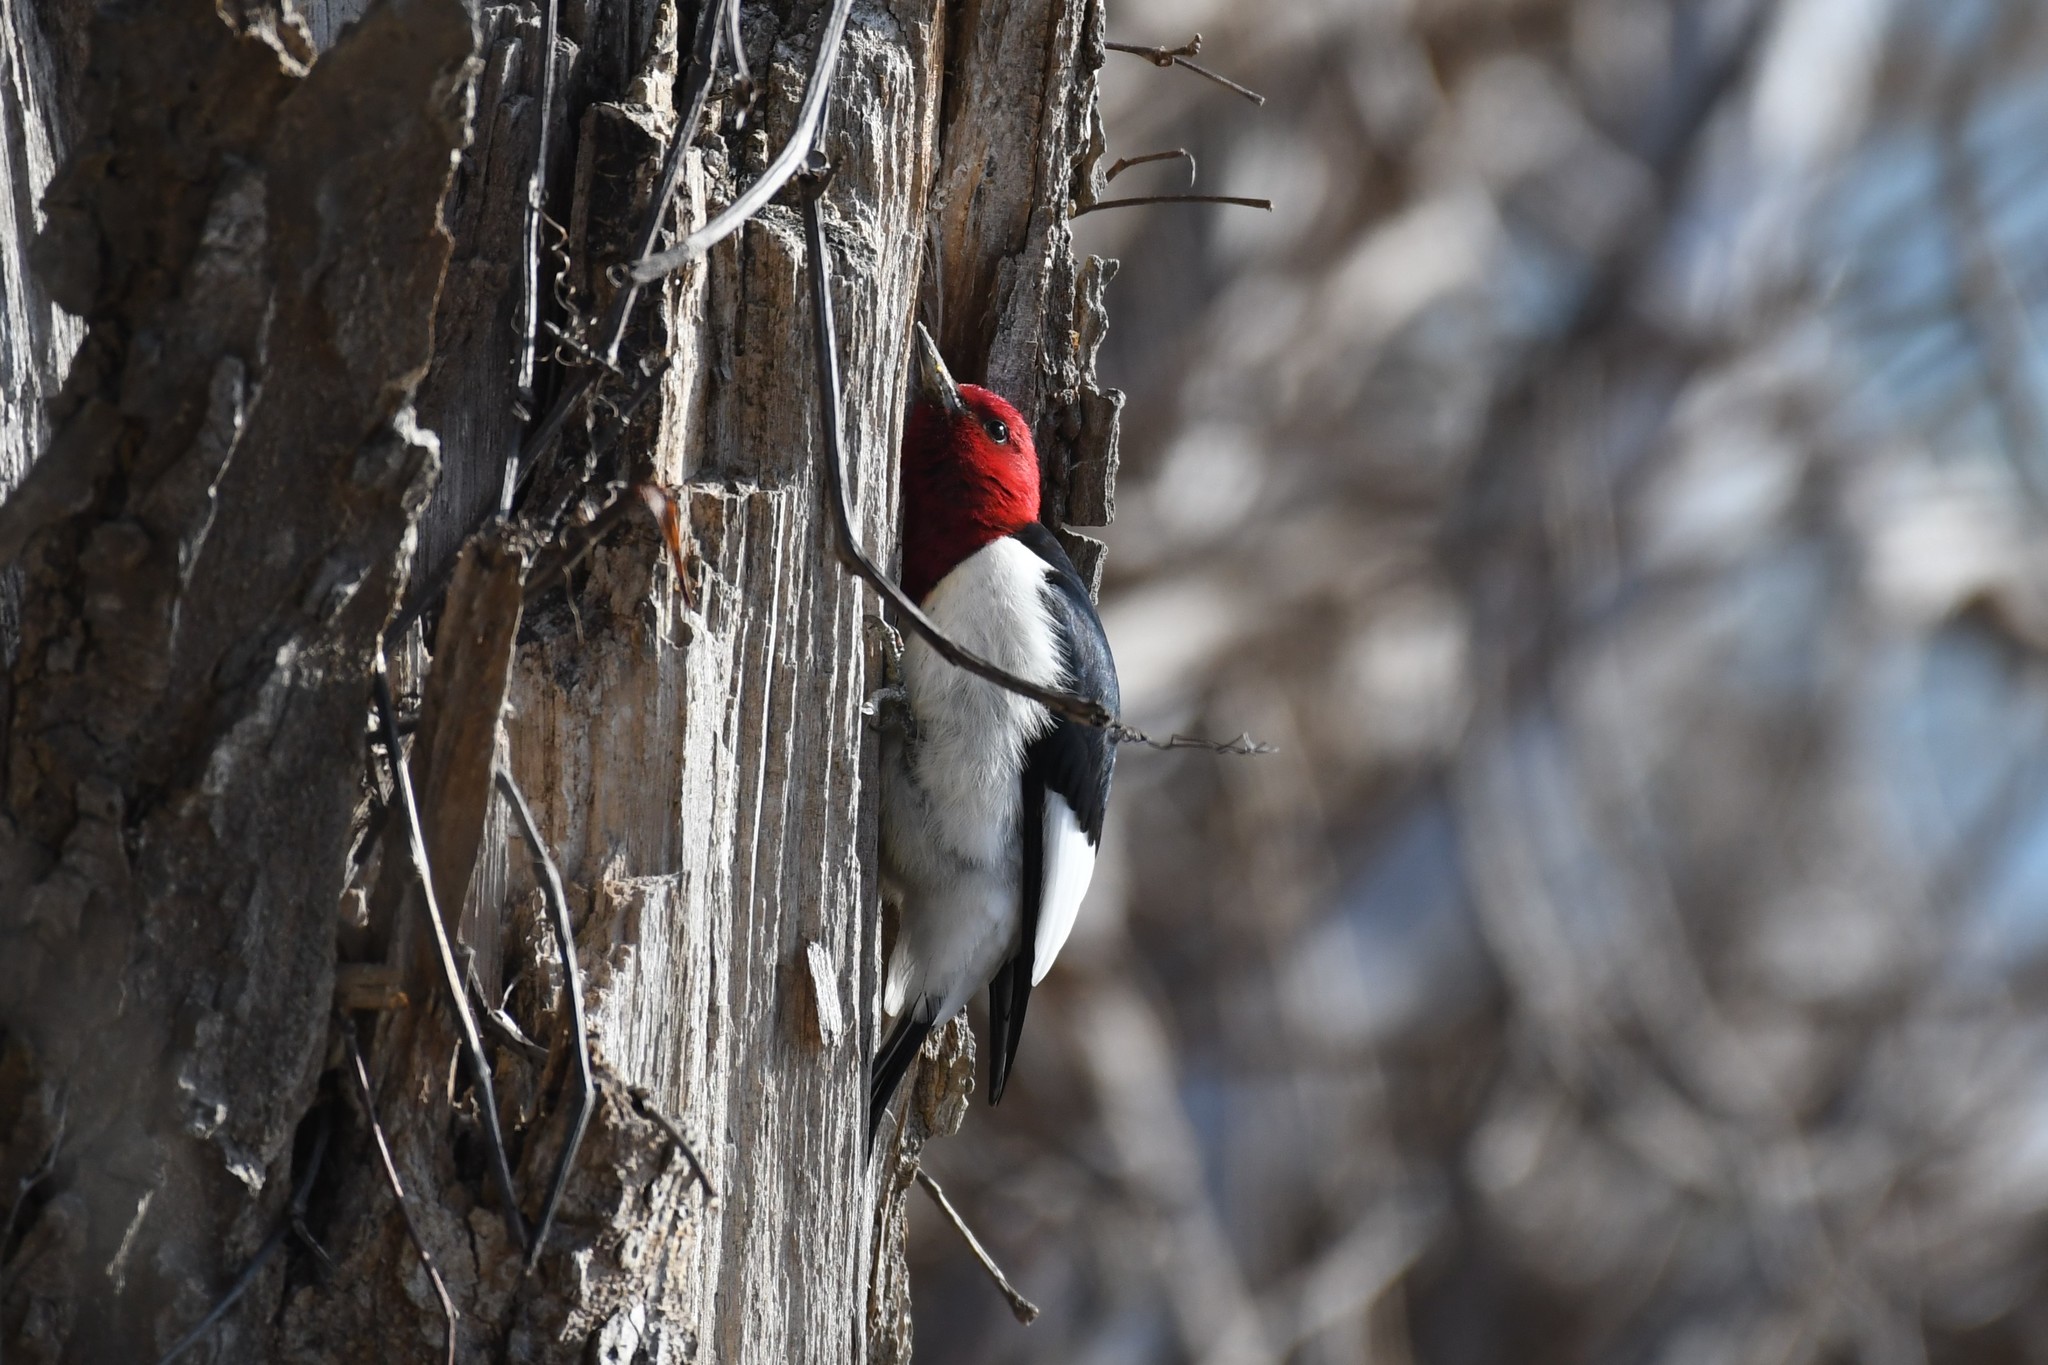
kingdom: Animalia
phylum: Chordata
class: Aves
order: Piciformes
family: Picidae
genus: Melanerpes
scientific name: Melanerpes erythrocephalus
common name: Red-headed woodpecker
